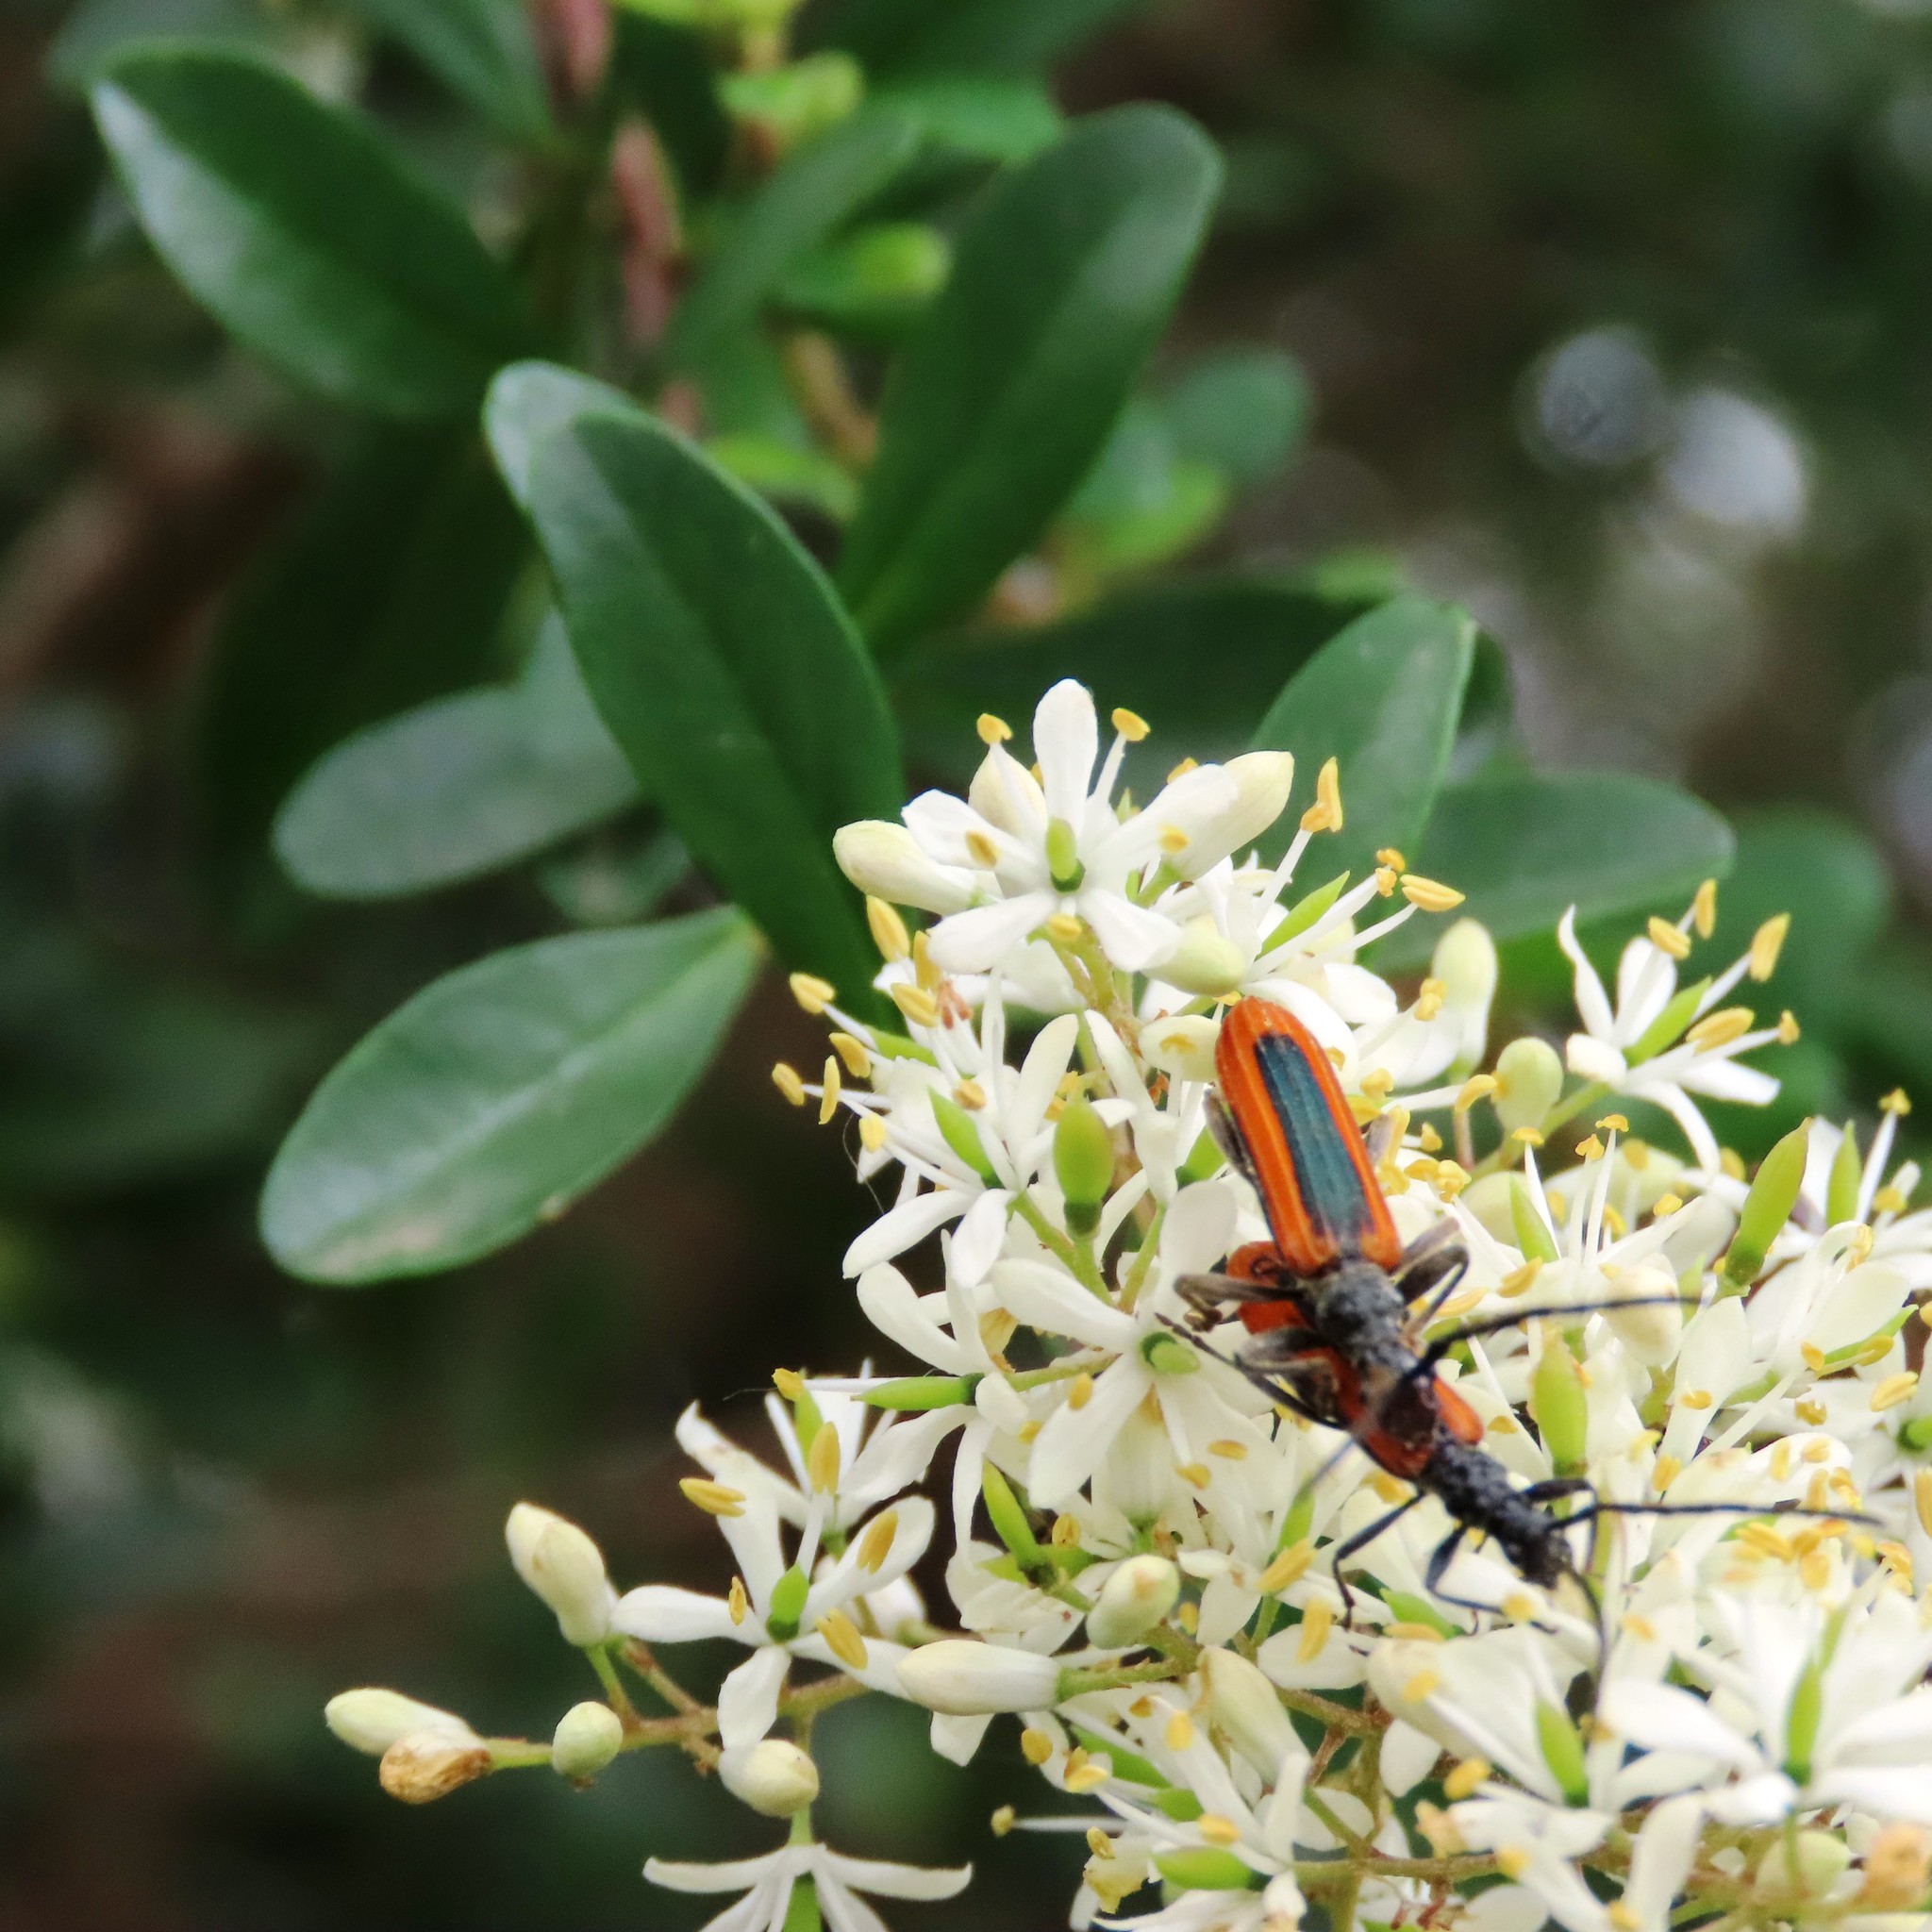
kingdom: Animalia
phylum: Arthropoda
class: Insecta
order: Coleoptera
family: Cerambycidae
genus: Stenoderus
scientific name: Stenoderus suturalis
